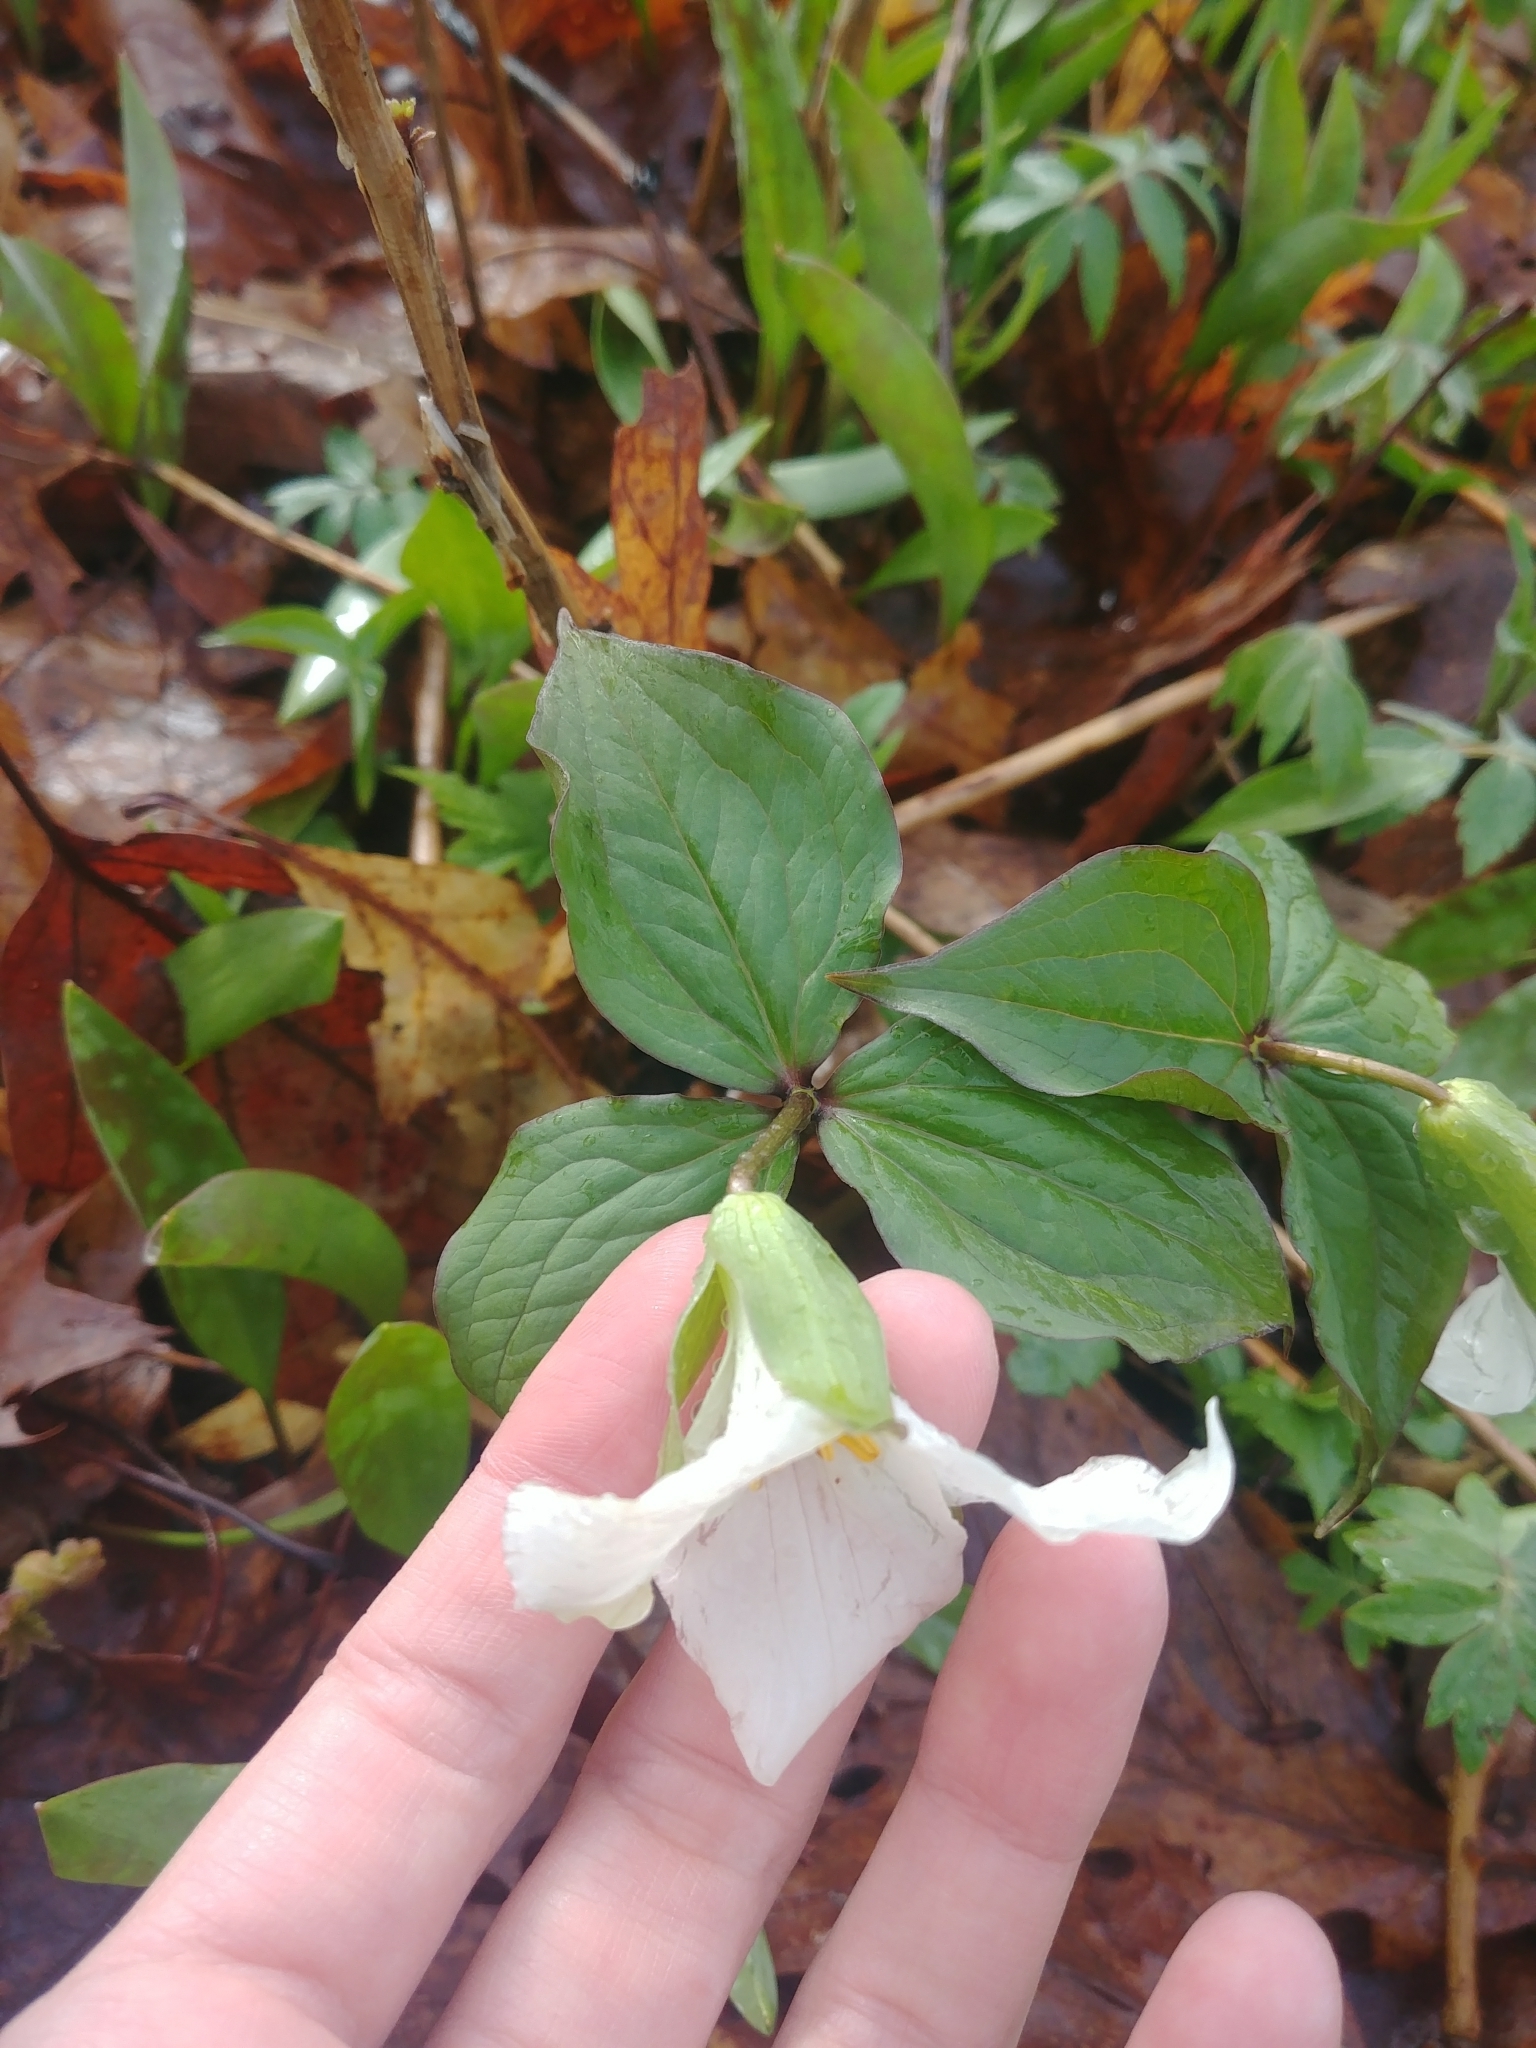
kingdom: Plantae
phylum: Tracheophyta
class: Liliopsida
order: Liliales
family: Melanthiaceae
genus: Trillium
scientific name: Trillium grandiflorum
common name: Great white trillium
